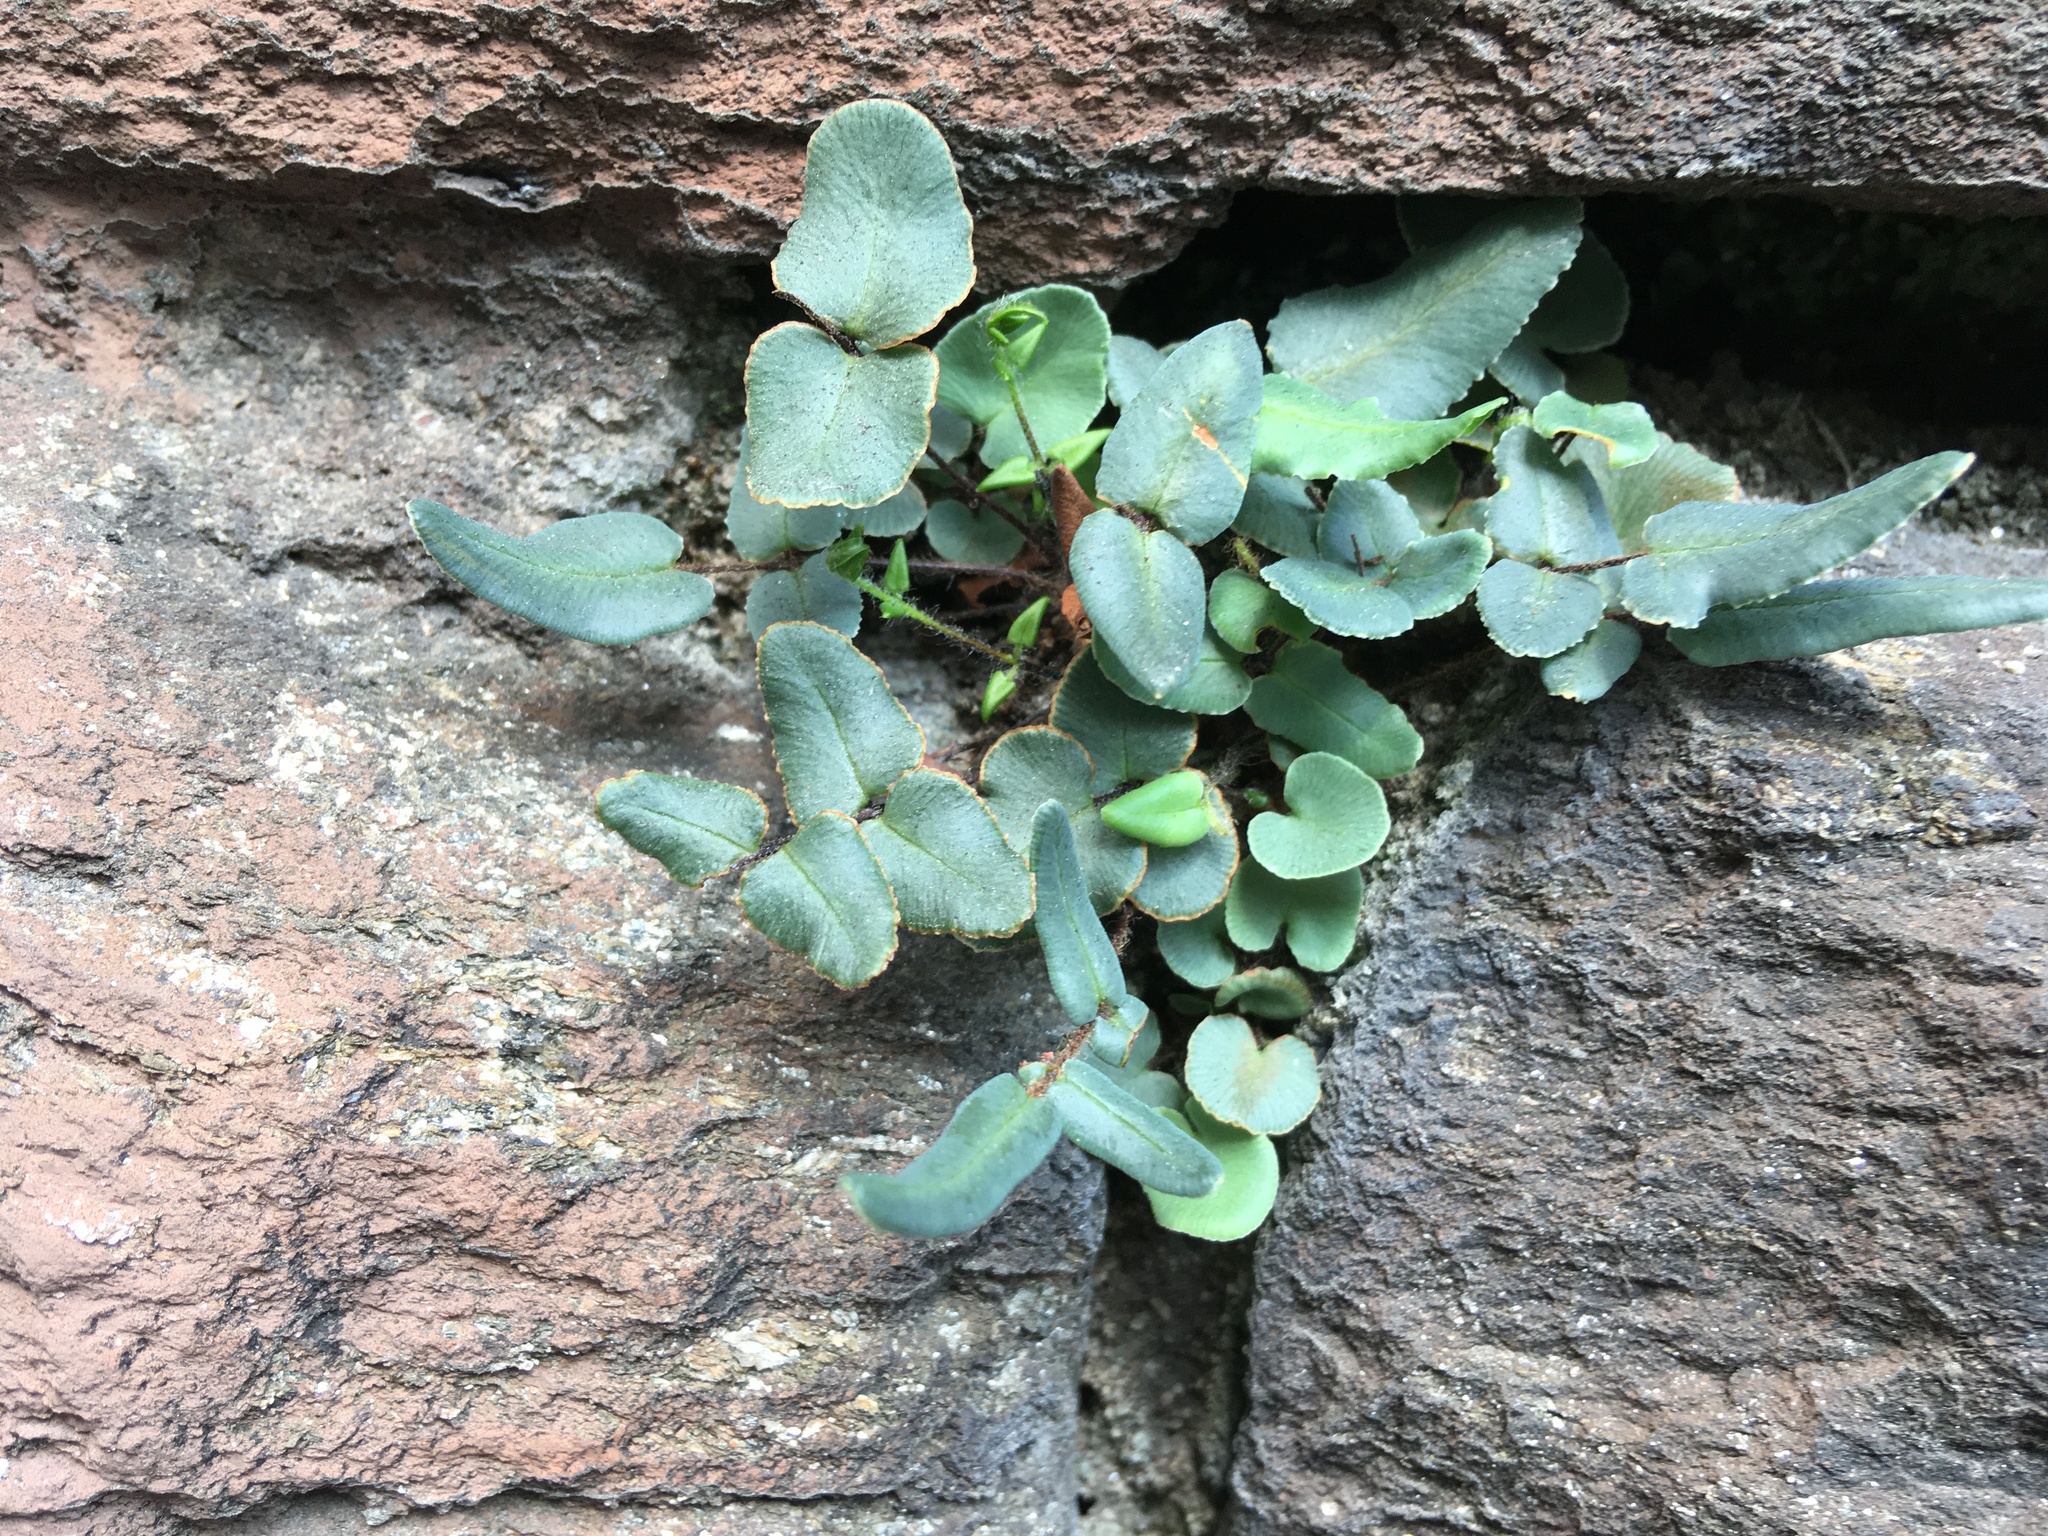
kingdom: Plantae
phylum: Tracheophyta
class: Polypodiopsida
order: Polypodiales
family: Pteridaceae
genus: Pellaea
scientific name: Pellaea atropurpurea
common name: Hairy cliffbrake
